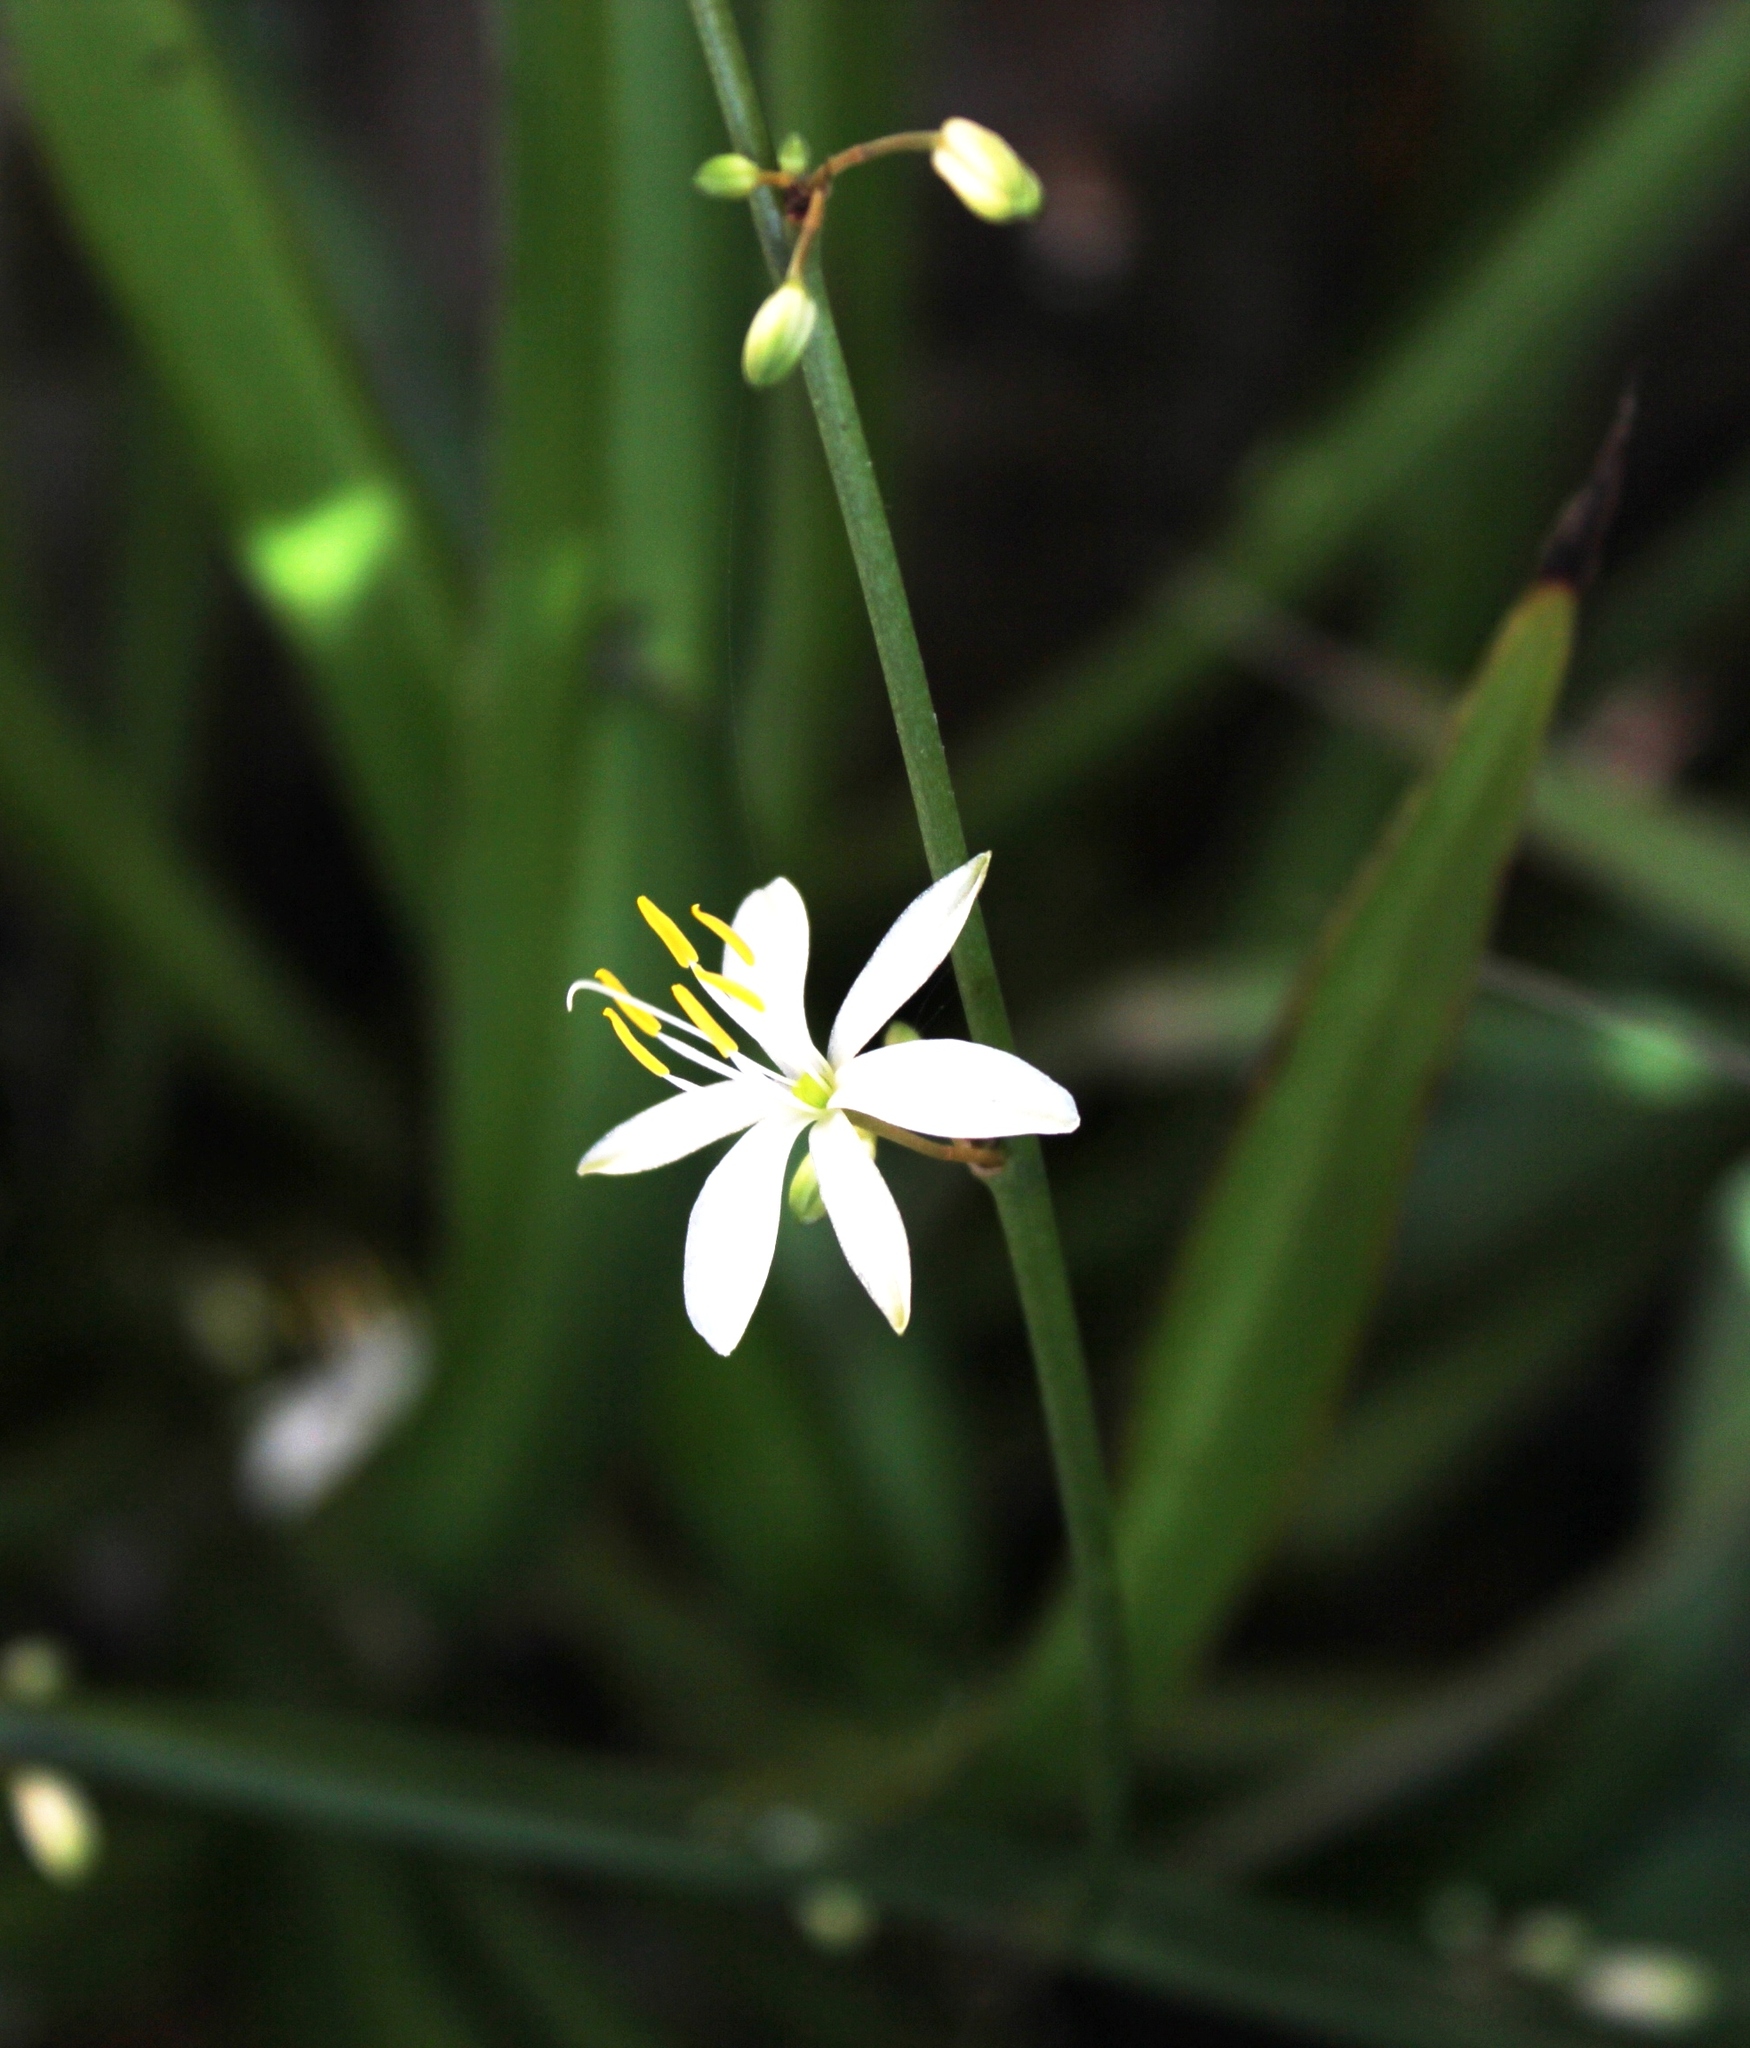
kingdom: Plantae
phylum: Tracheophyta
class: Liliopsida
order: Asparagales
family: Asparagaceae
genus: Chlorophytum
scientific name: Chlorophytum comosum
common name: Spider plant
